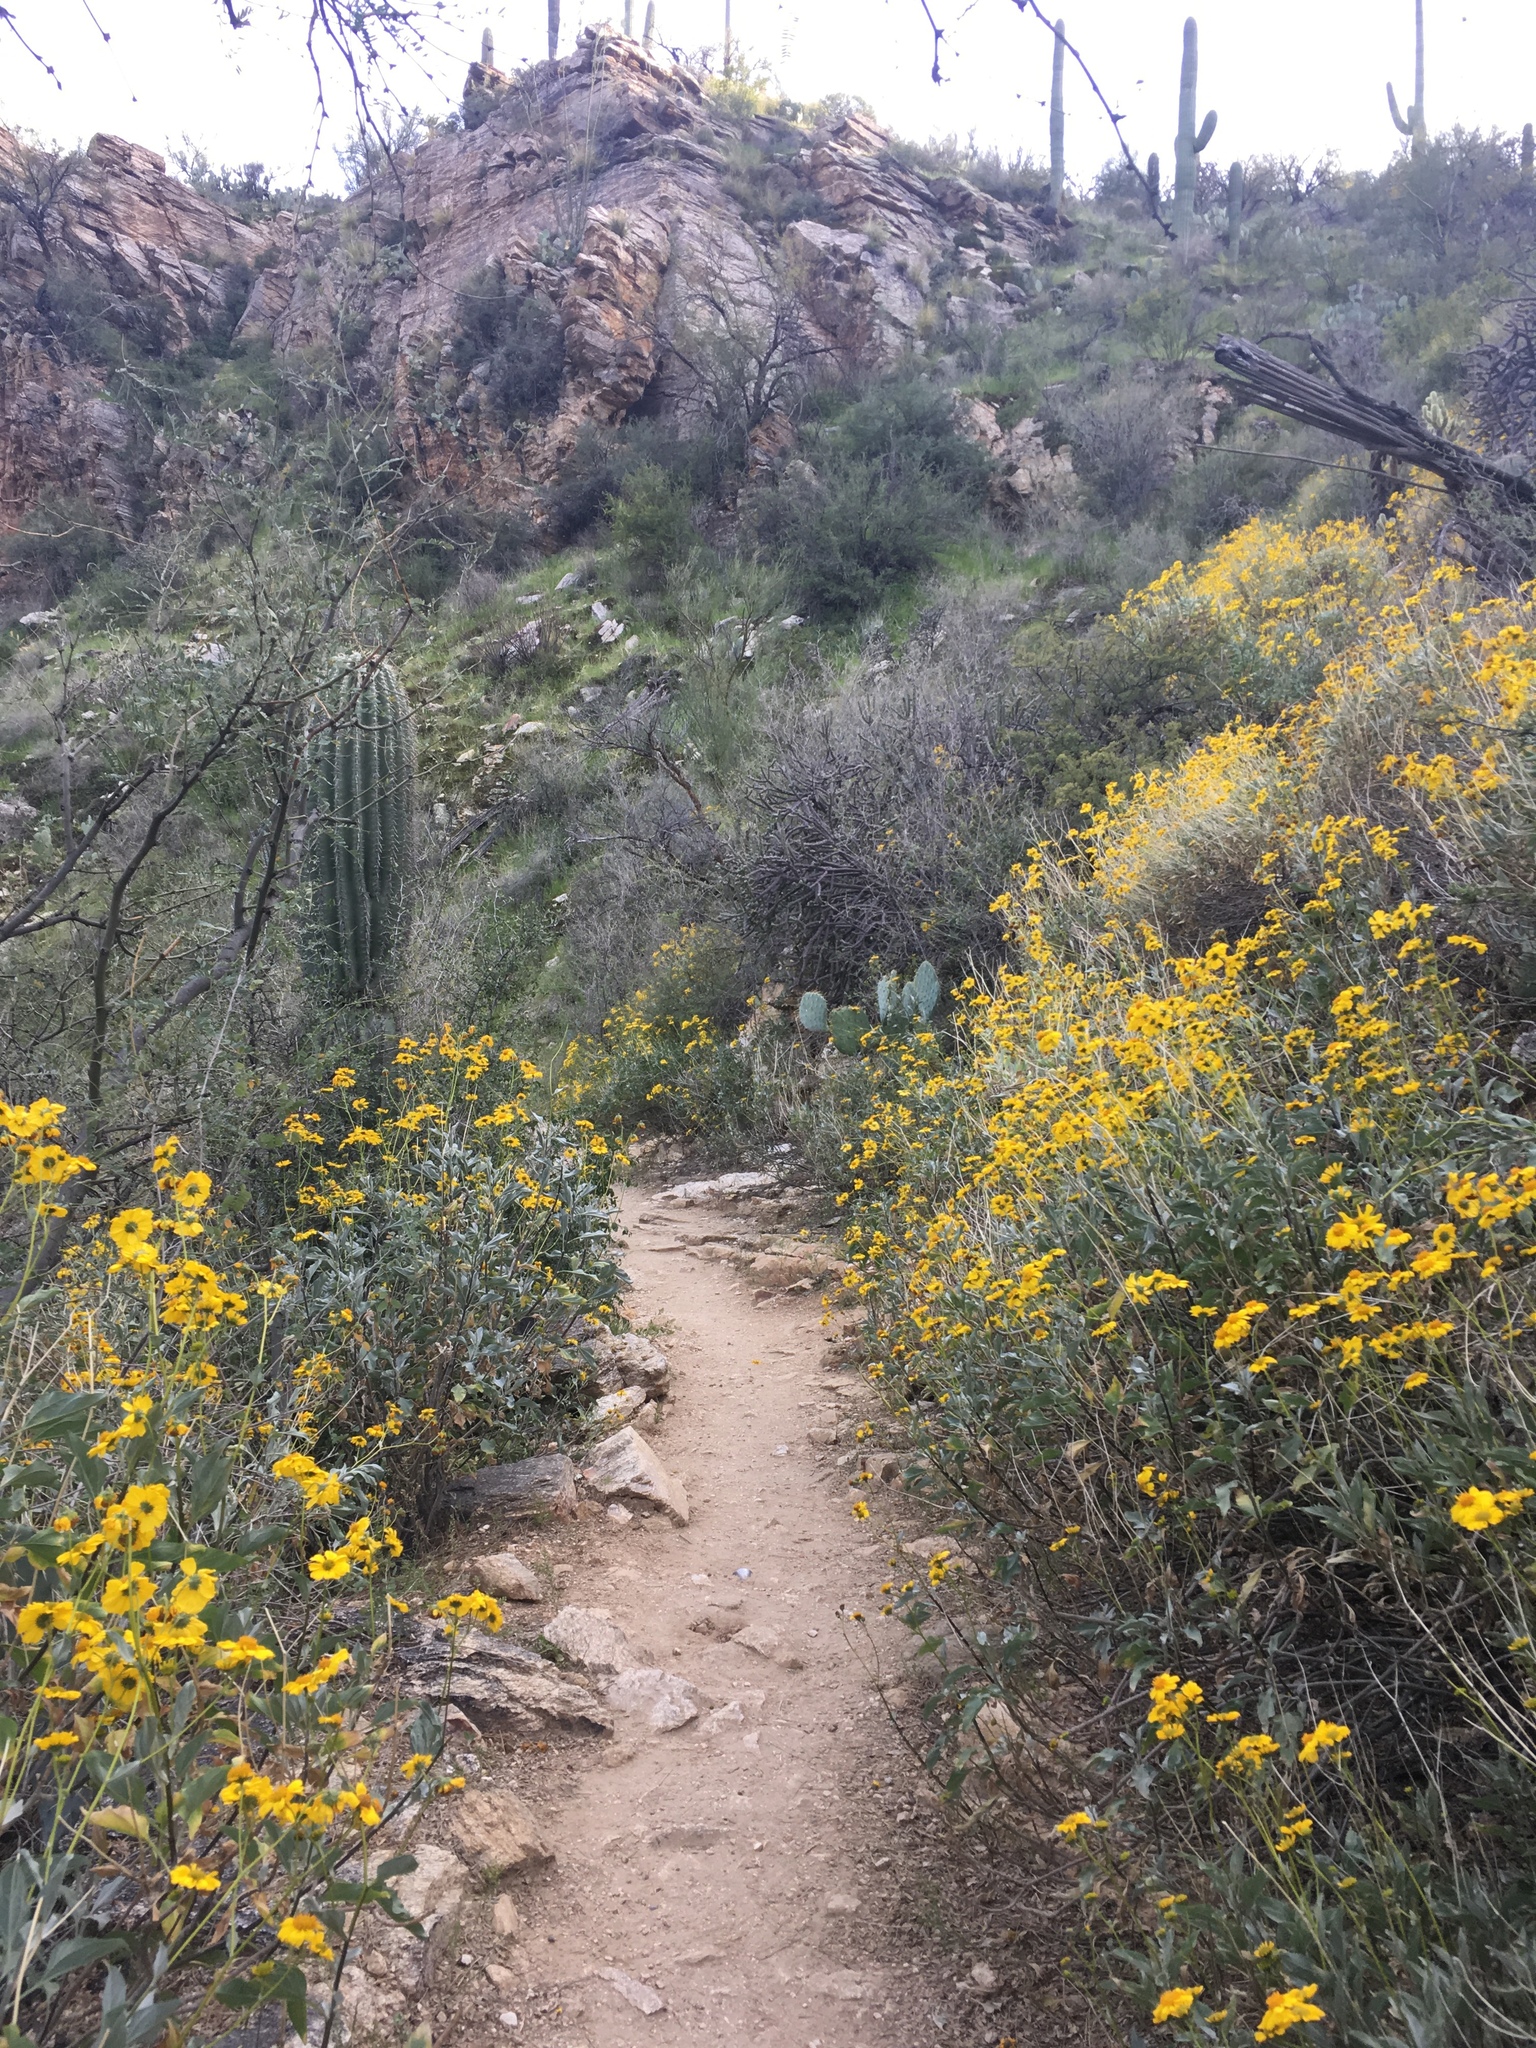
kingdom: Plantae
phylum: Tracheophyta
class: Magnoliopsida
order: Asterales
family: Asteraceae
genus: Encelia
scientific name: Encelia farinosa
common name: Brittlebush
